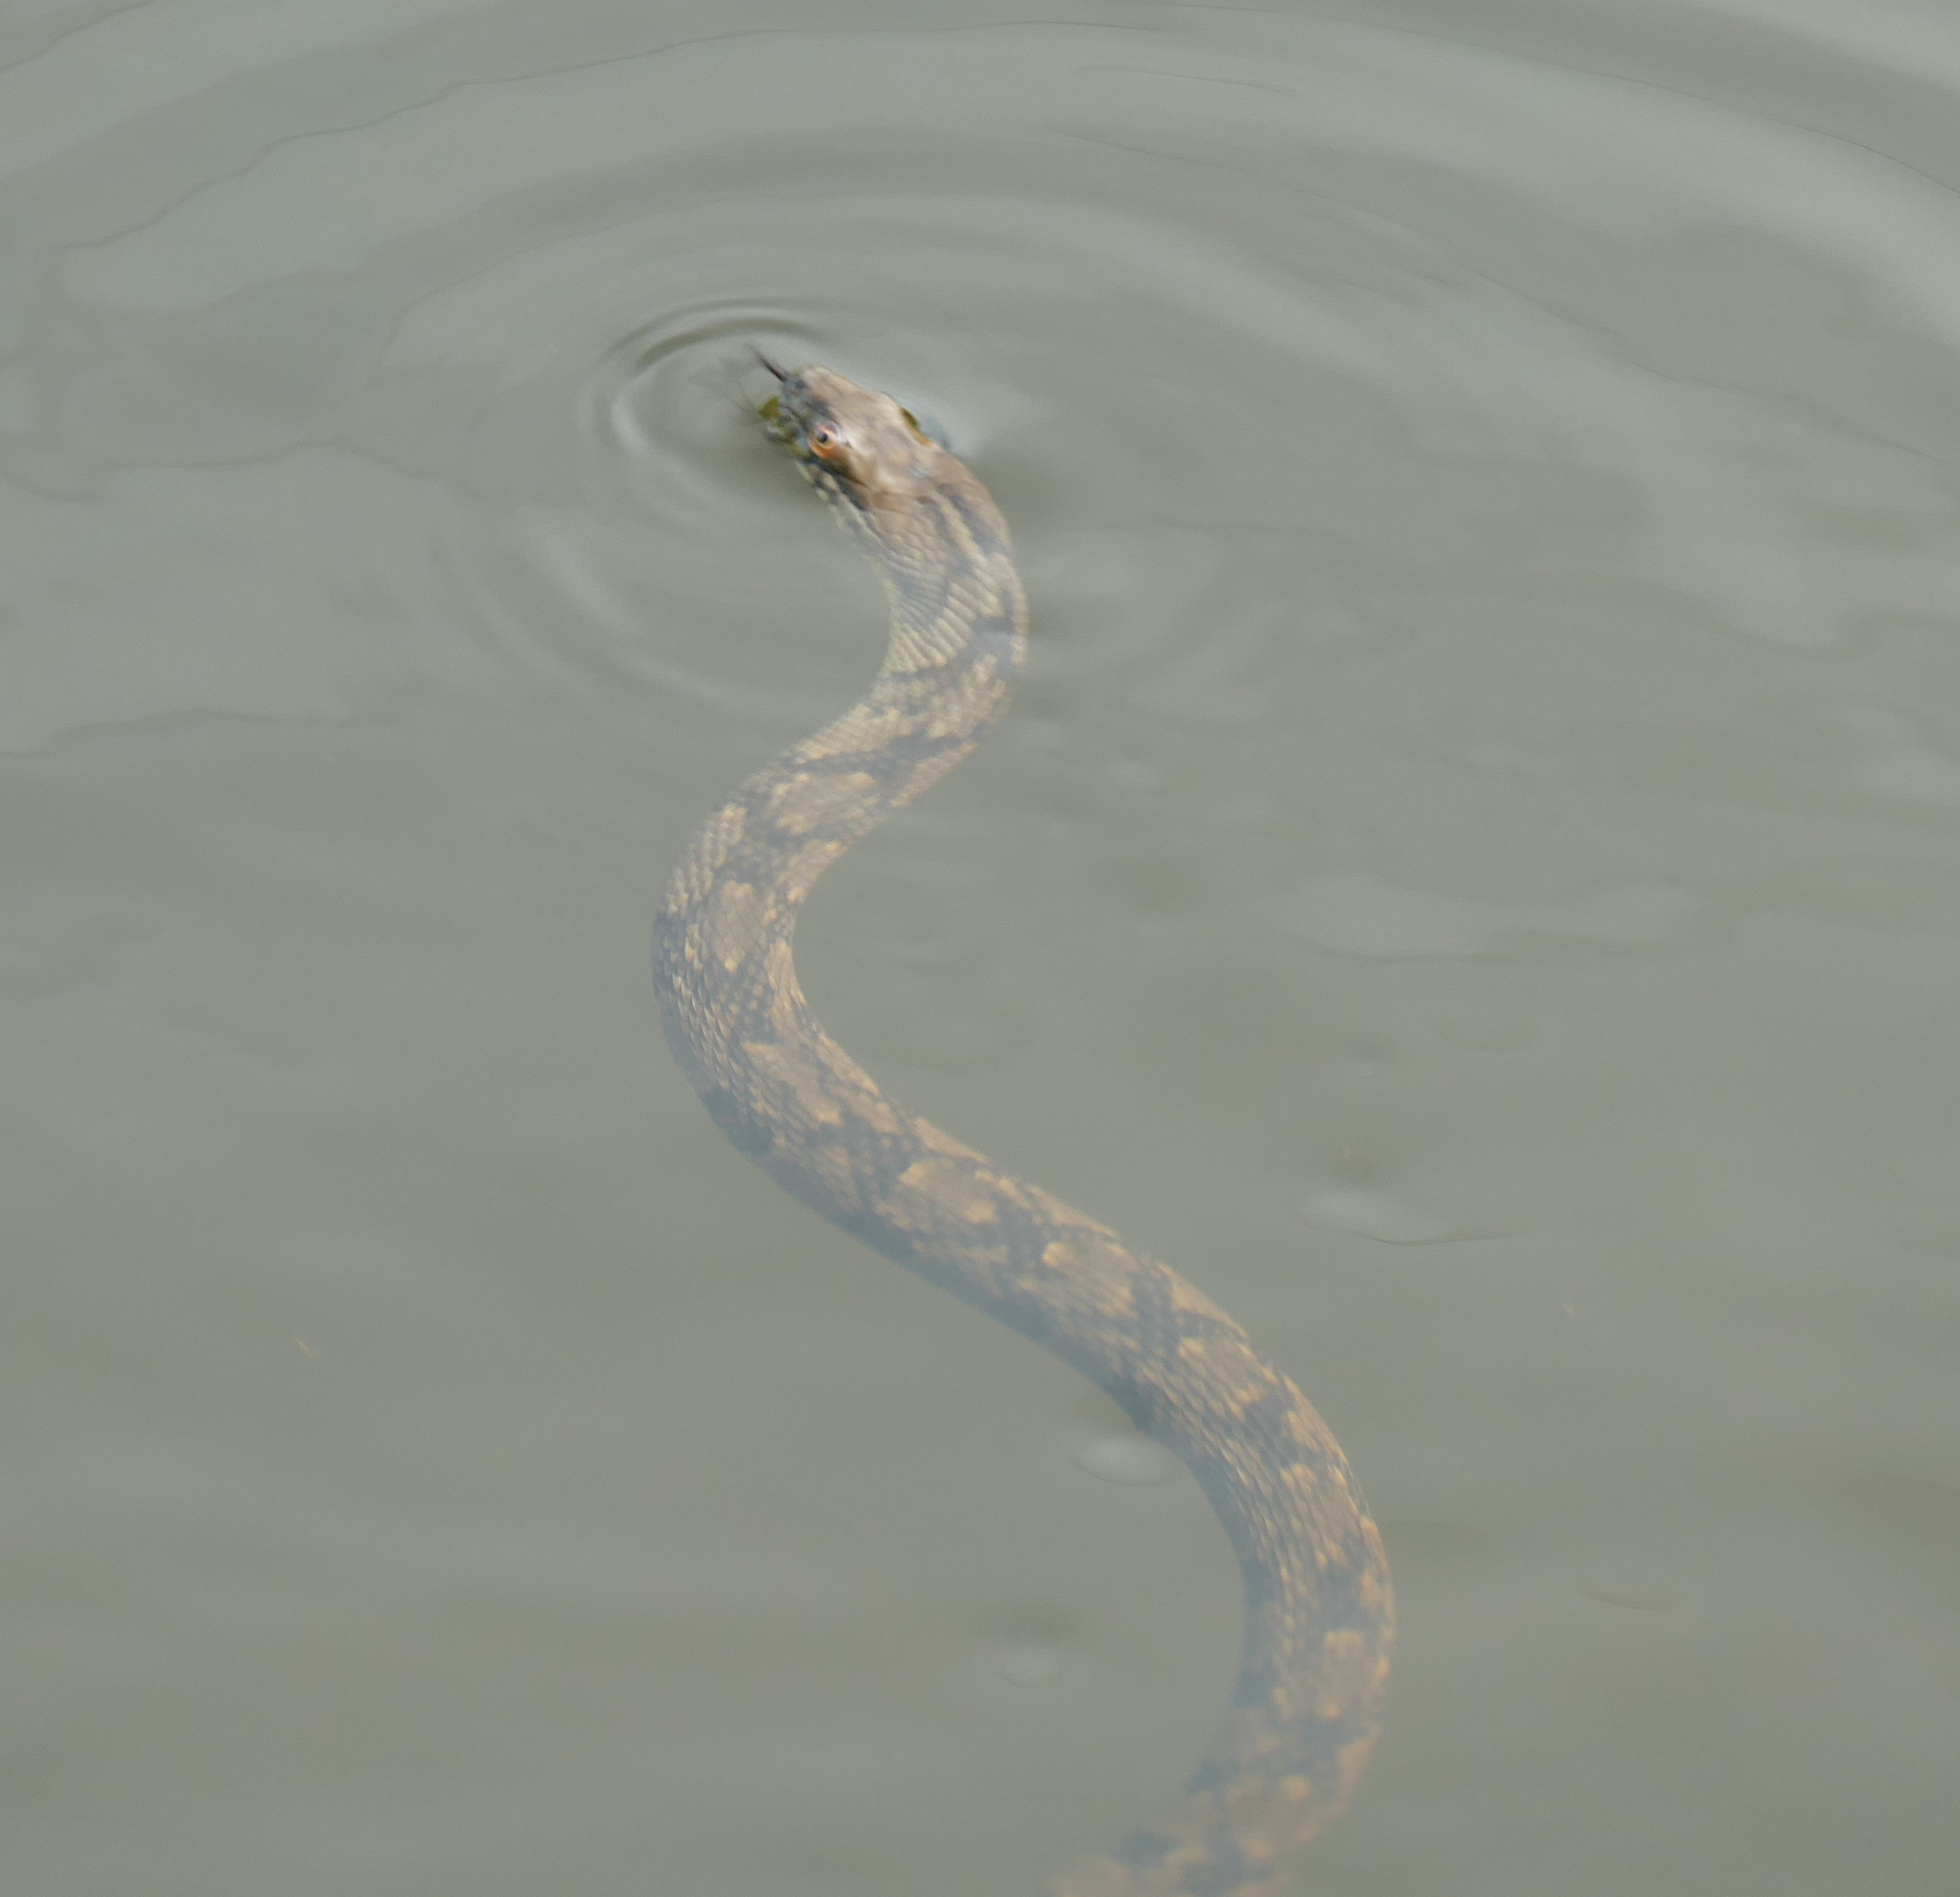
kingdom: Animalia
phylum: Chordata
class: Squamata
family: Colubridae
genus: Nerodia
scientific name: Nerodia rhombifer
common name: Diamondback water snake
